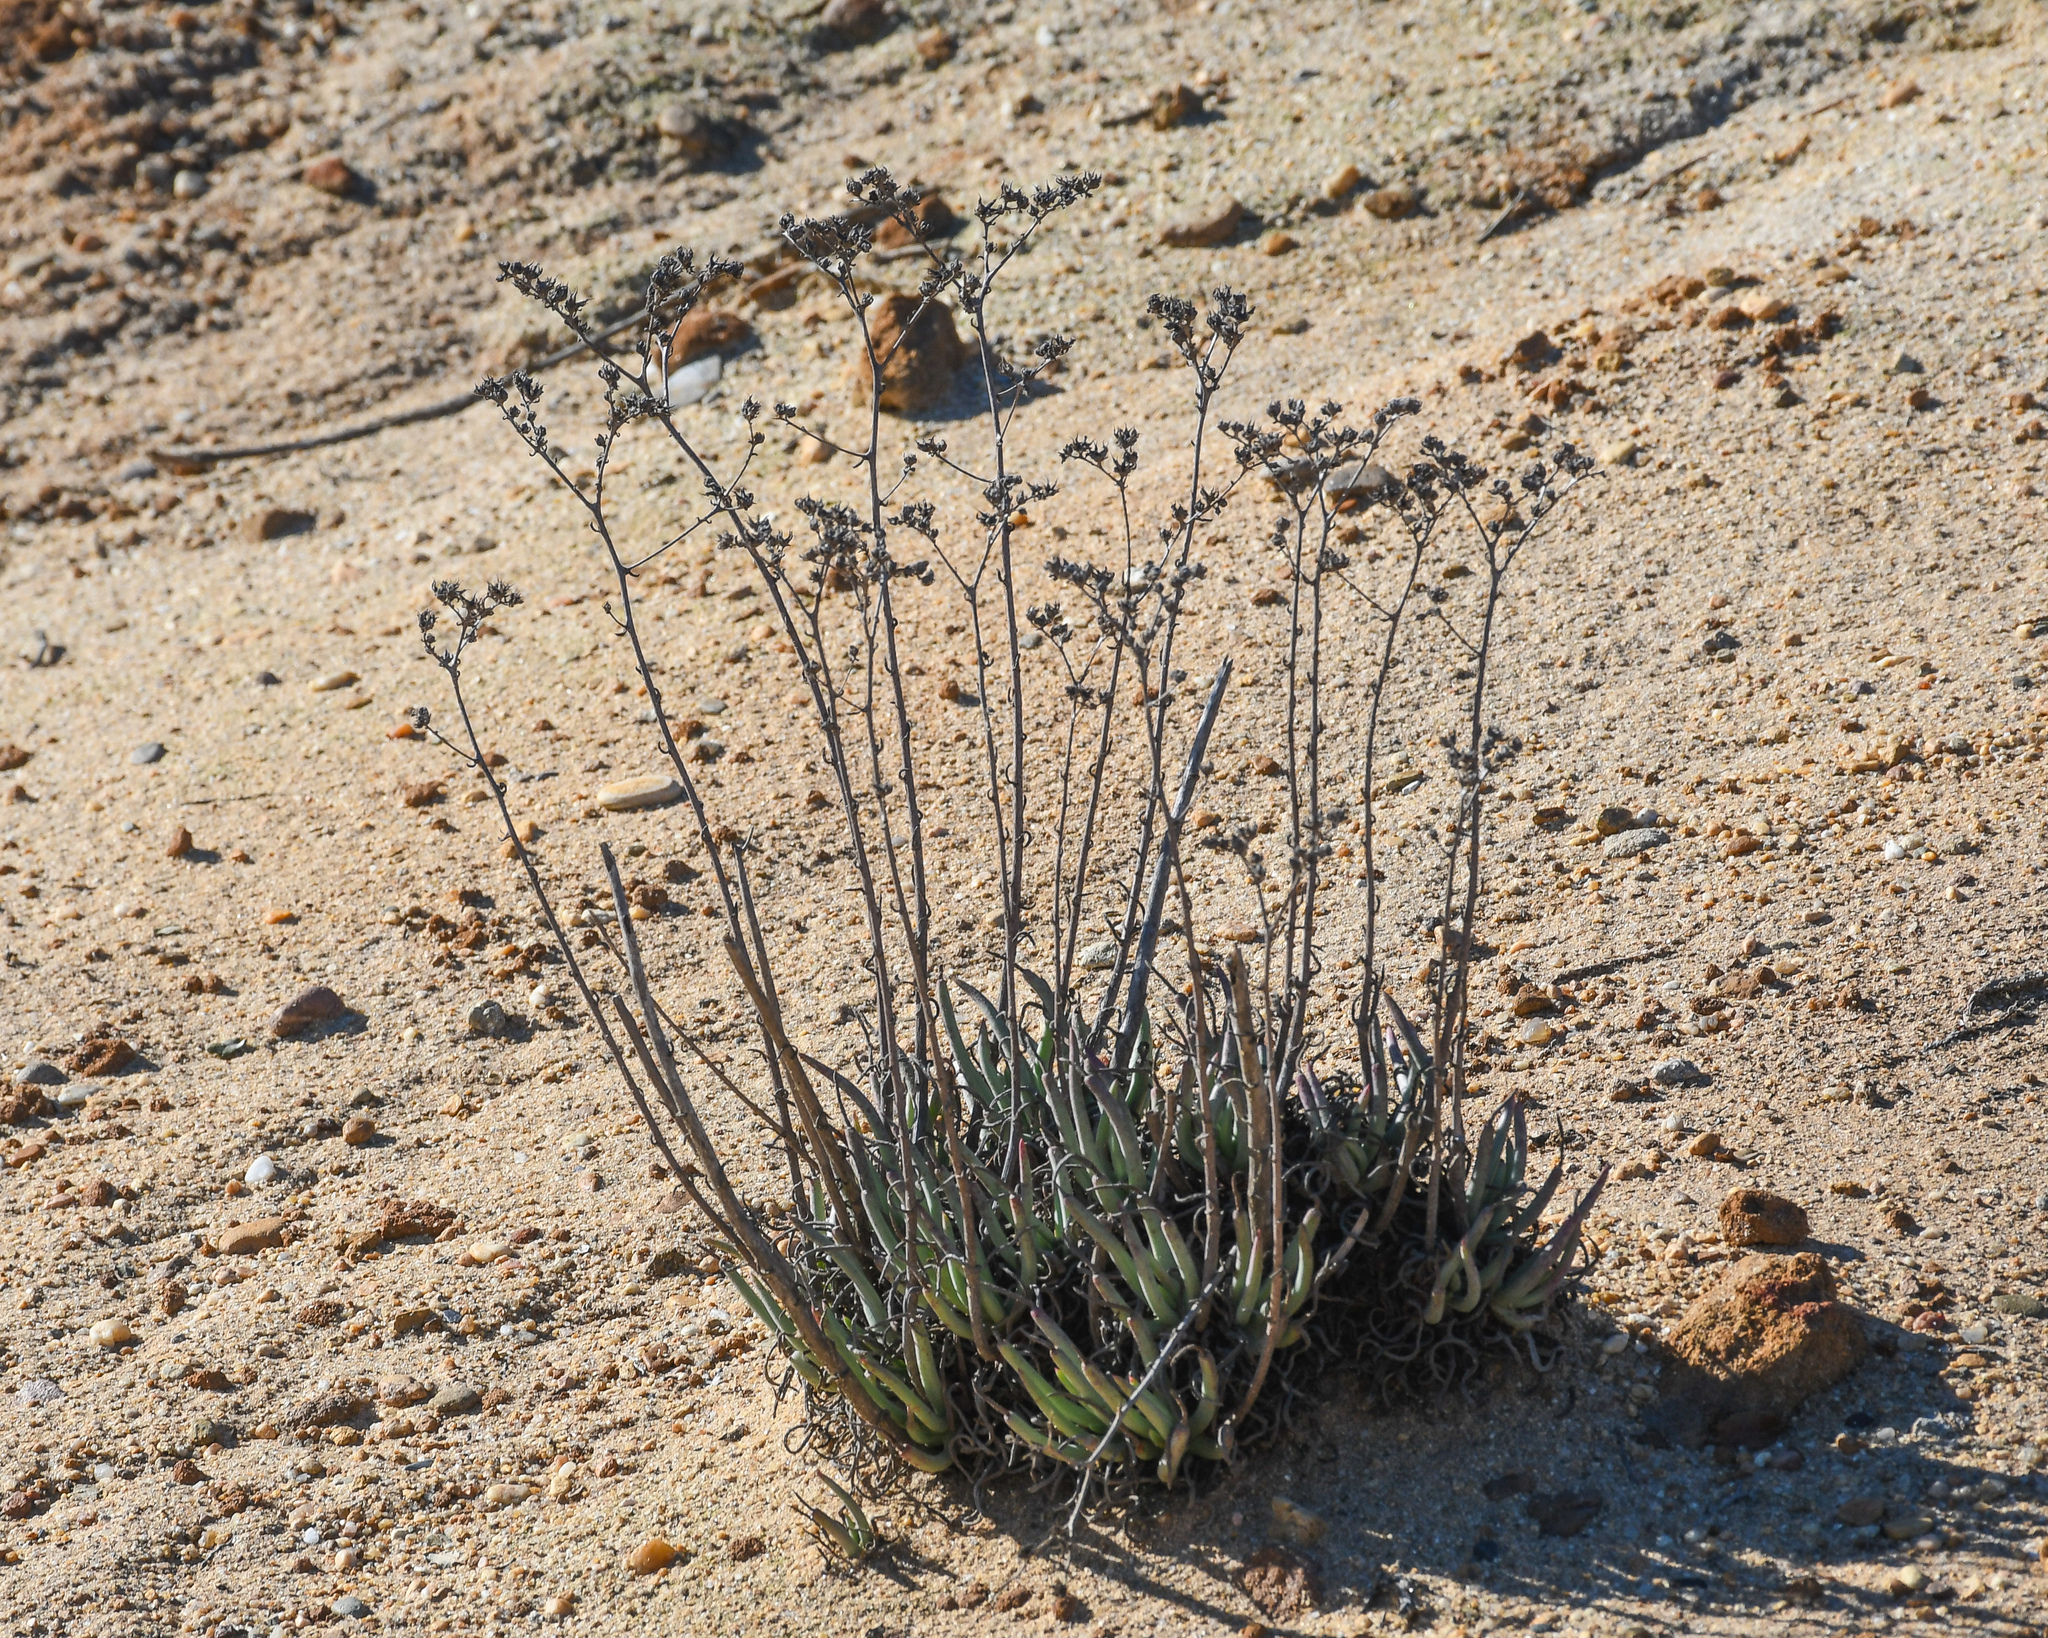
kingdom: Plantae
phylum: Tracheophyta
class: Magnoliopsida
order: Saxifragales
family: Crassulaceae
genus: Dudleya
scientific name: Dudleya edulis
